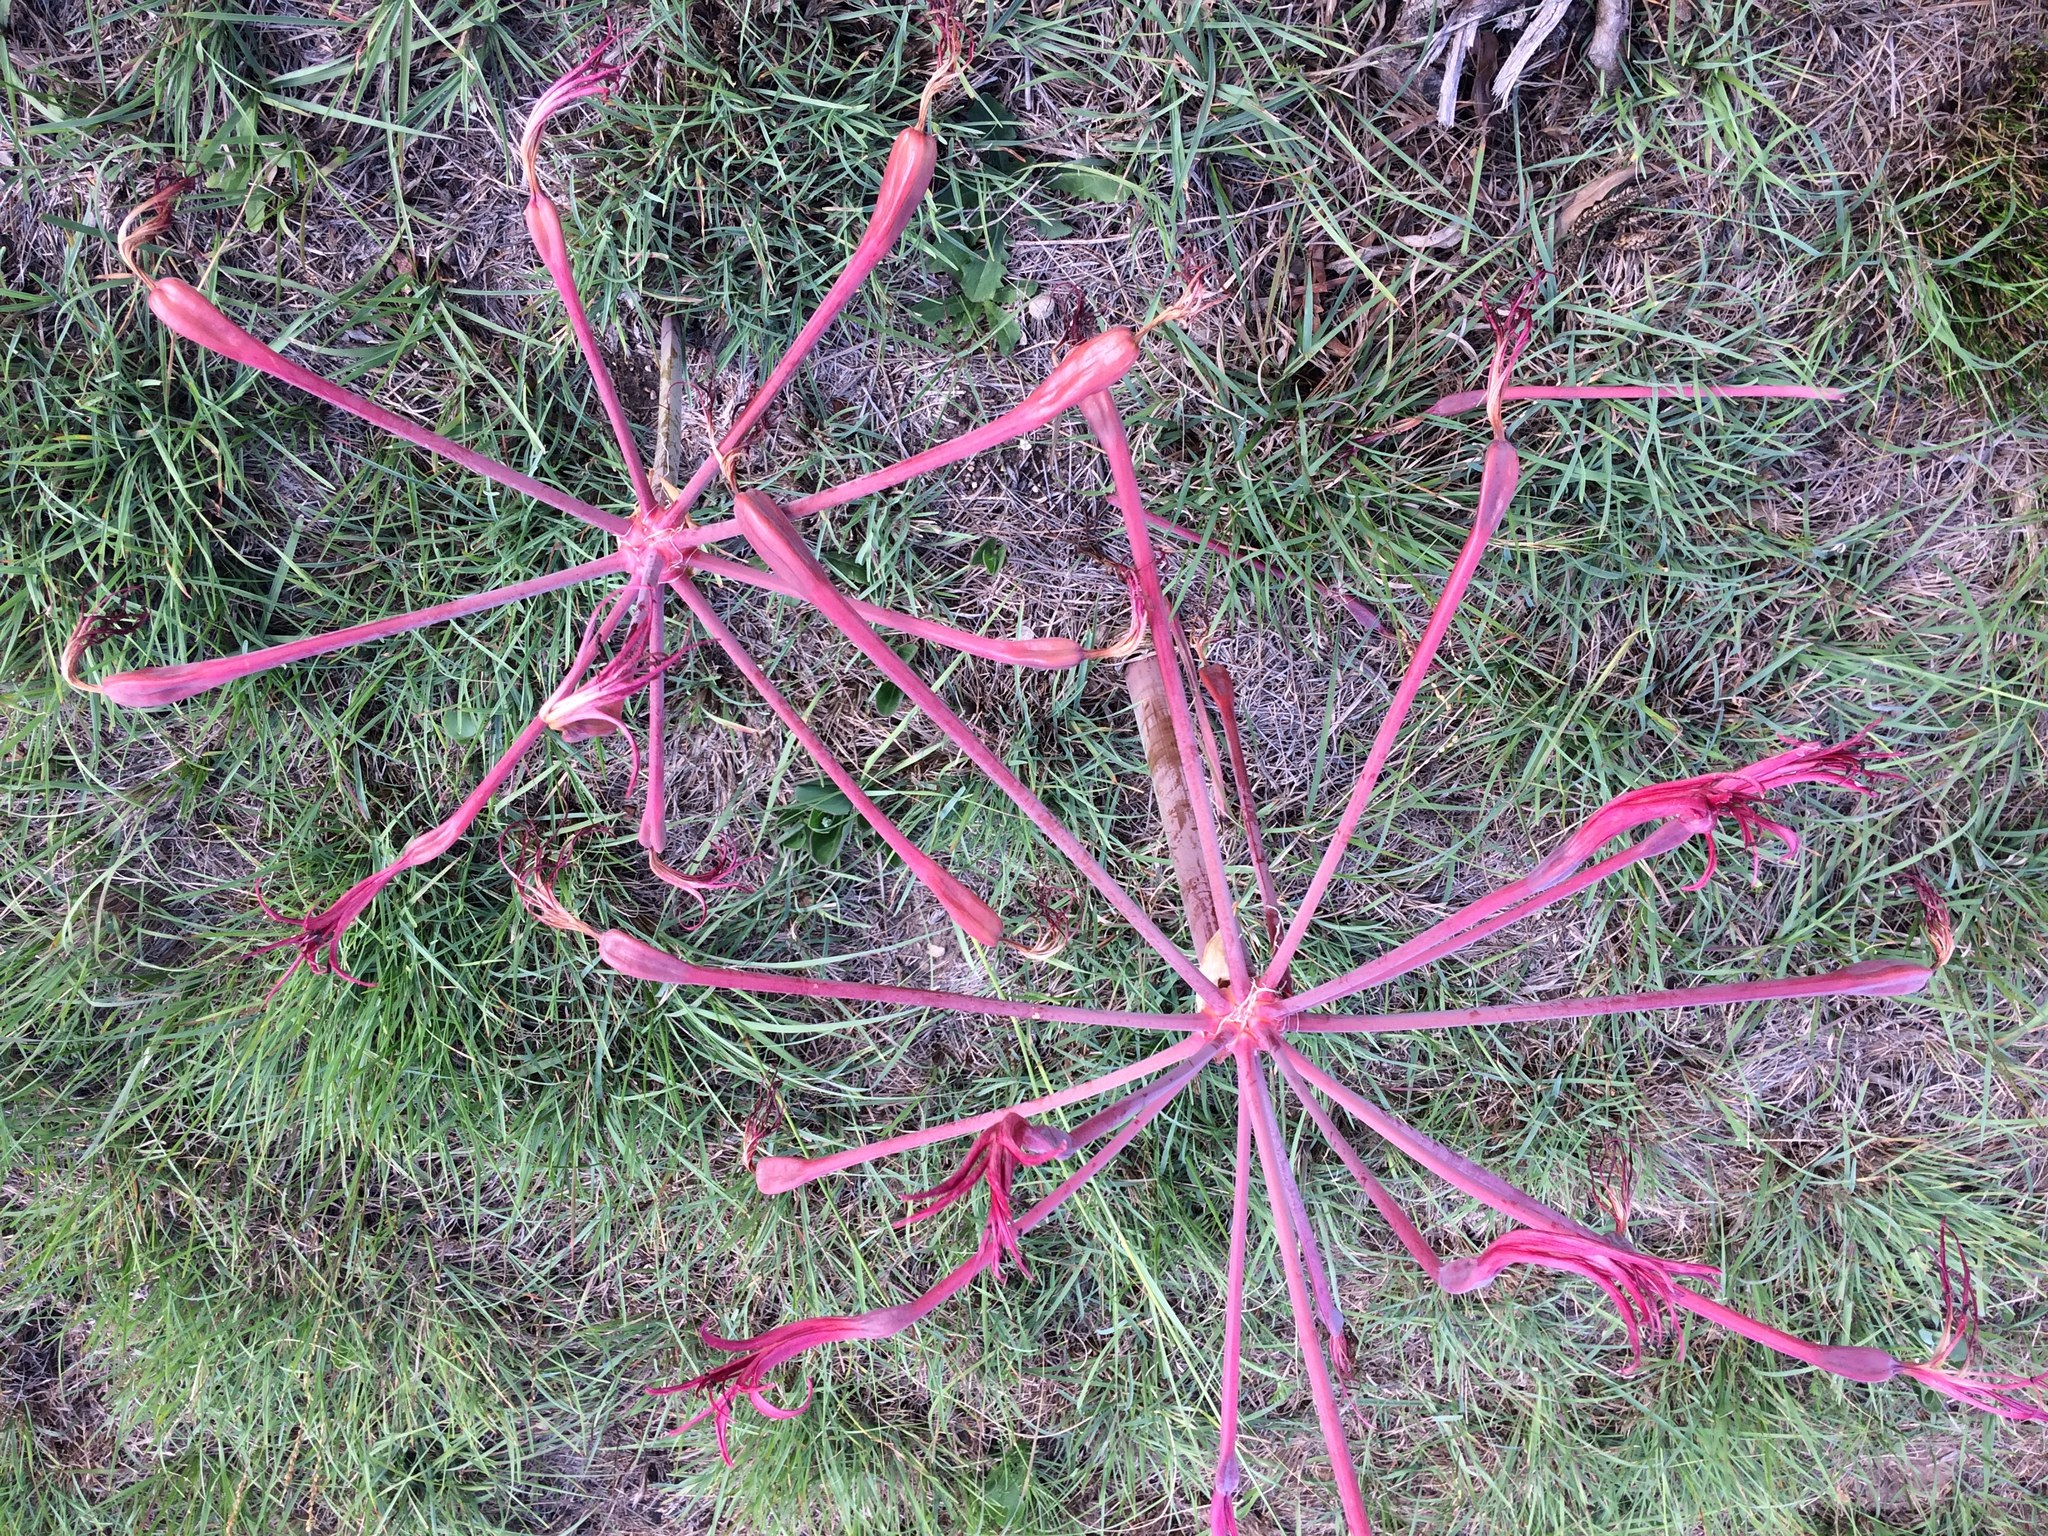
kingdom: Plantae
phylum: Tracheophyta
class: Liliopsida
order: Asparagales
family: Amaryllidaceae
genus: Brunsvigia
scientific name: Brunsvigia litoralis
